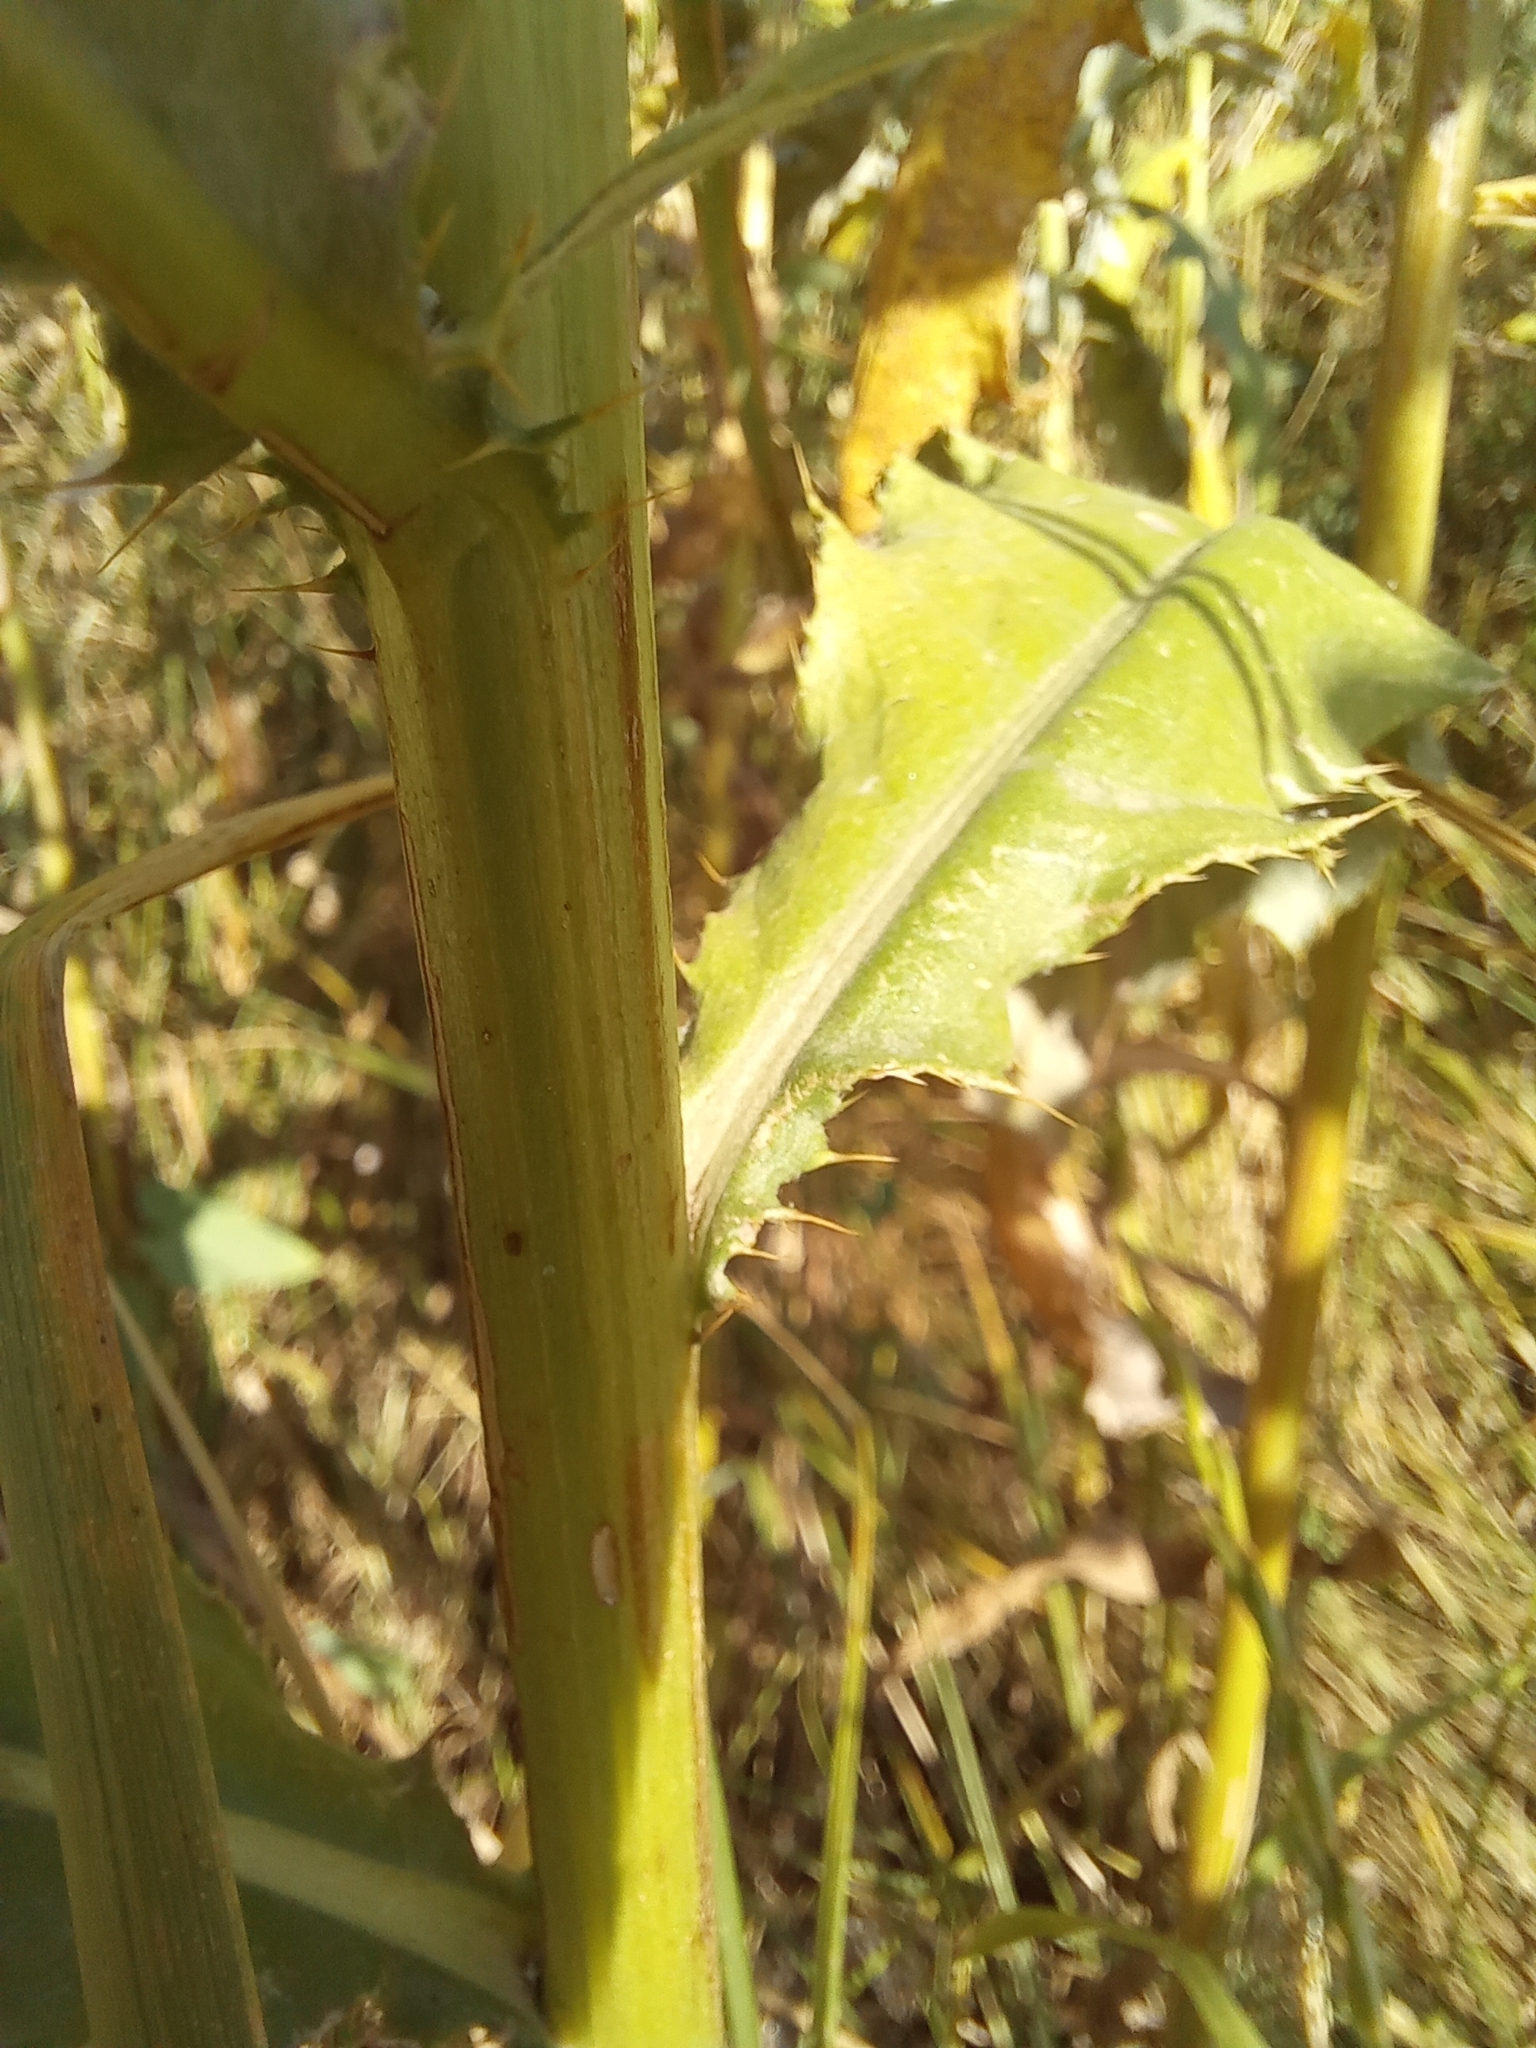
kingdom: Plantae
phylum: Tracheophyta
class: Magnoliopsida
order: Asterales
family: Asteraceae
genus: Cirsium
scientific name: Cirsium arvense
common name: Creeping thistle
